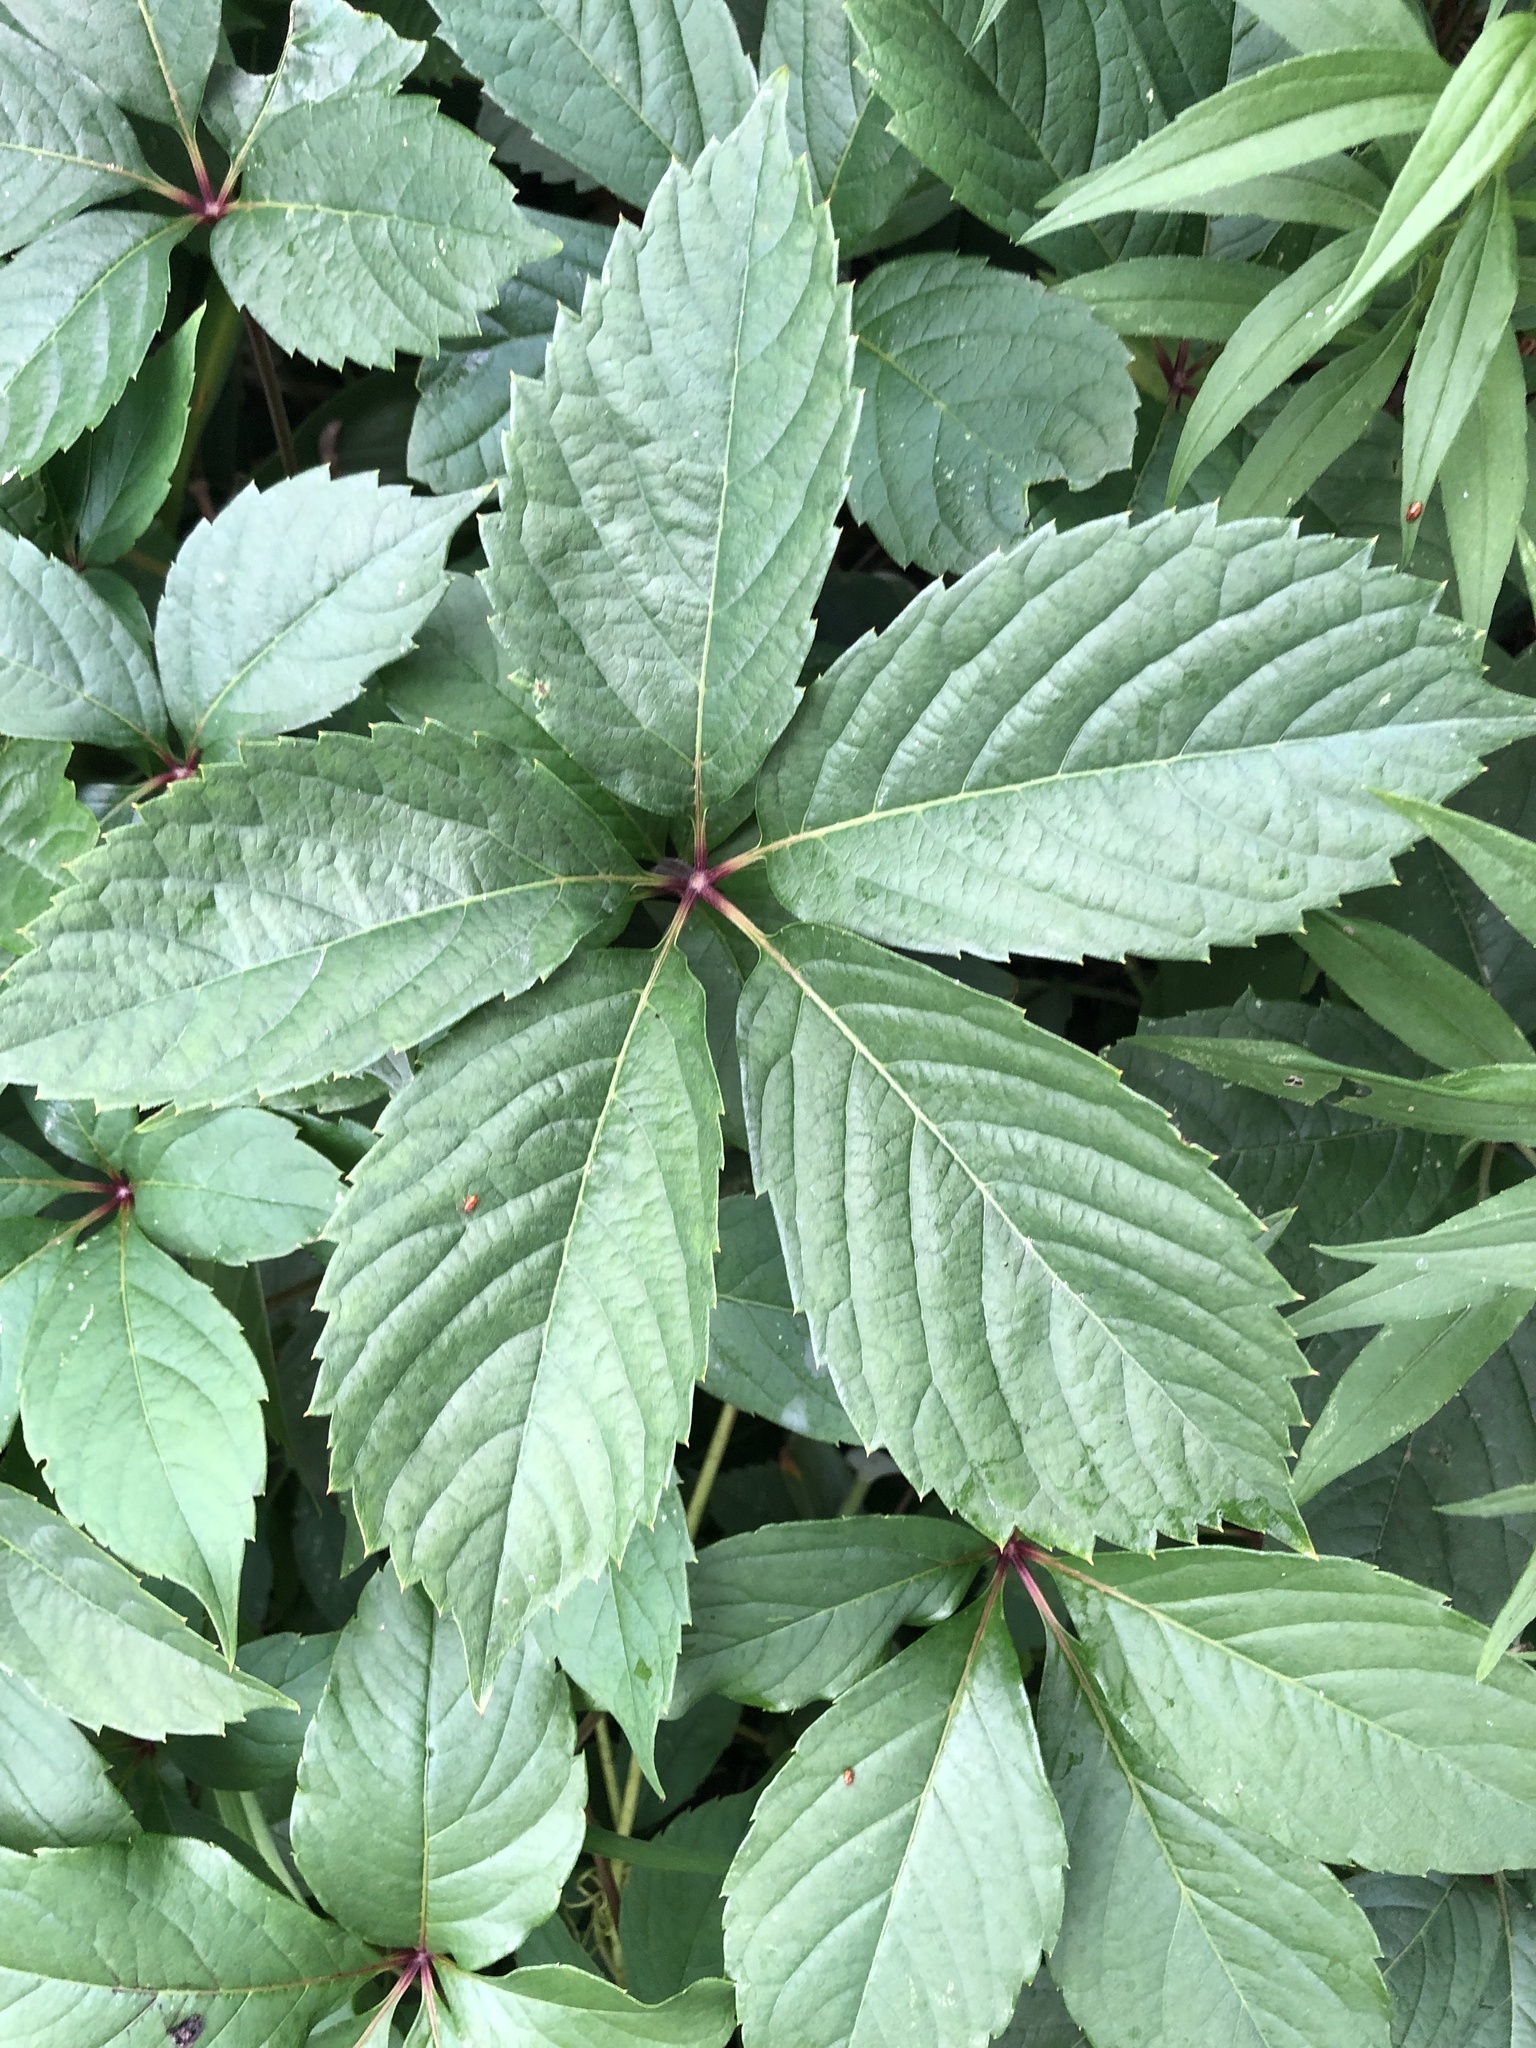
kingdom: Plantae
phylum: Tracheophyta
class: Magnoliopsida
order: Vitales
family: Vitaceae
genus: Parthenocissus
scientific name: Parthenocissus inserta
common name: False virginia-creeper
